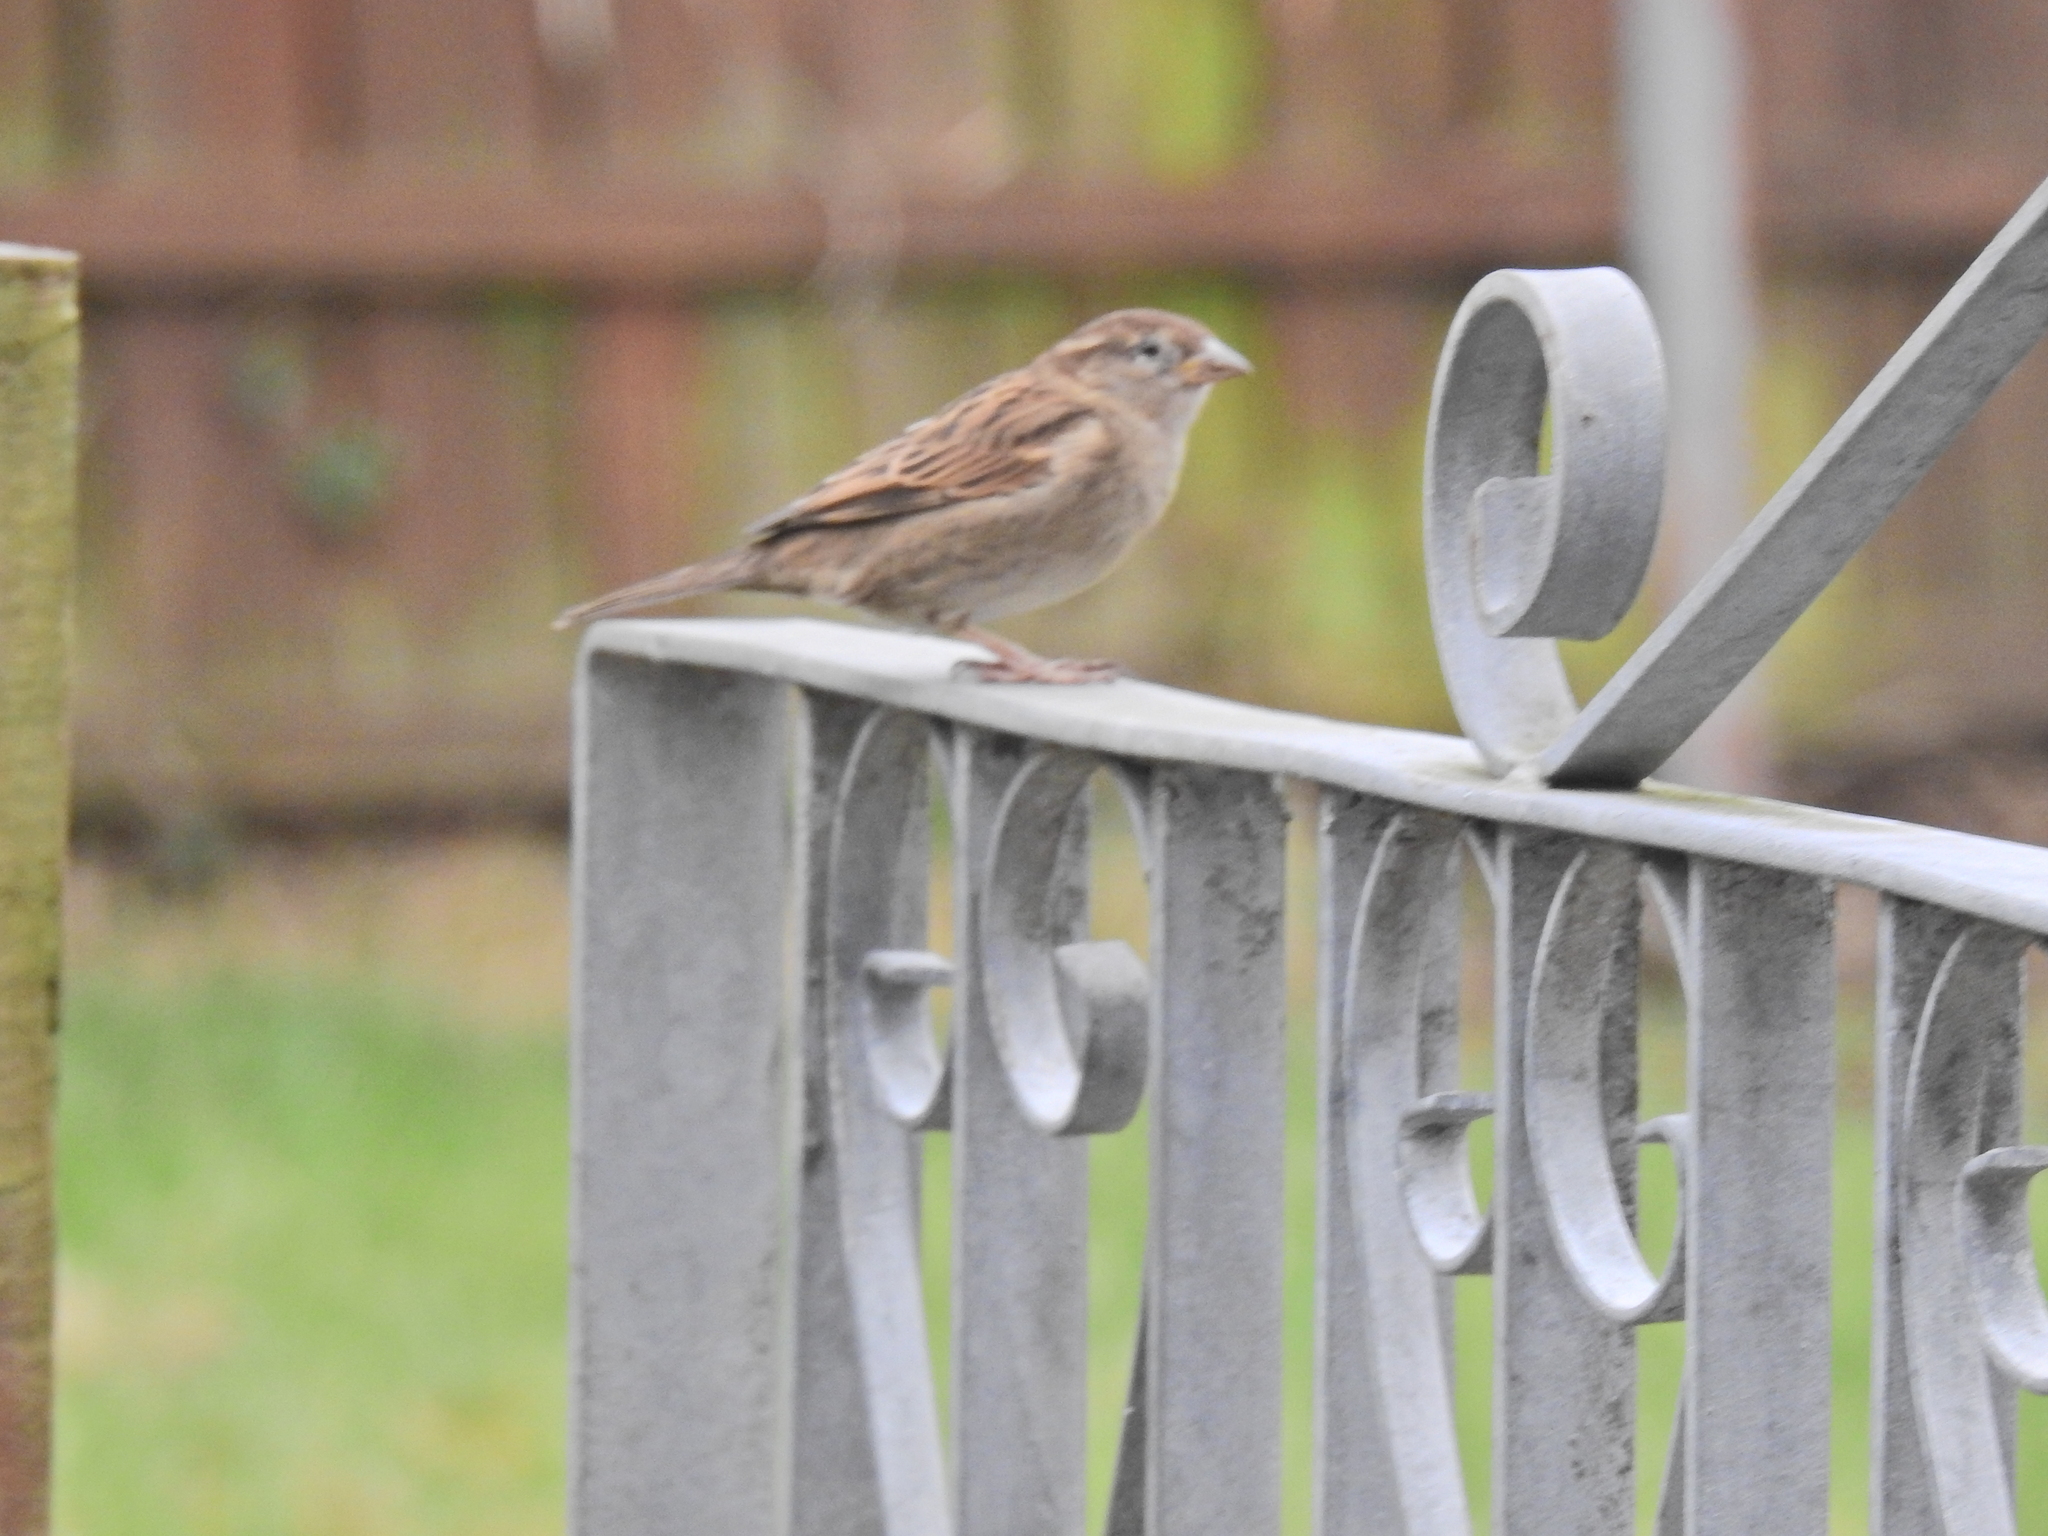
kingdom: Animalia
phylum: Chordata
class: Aves
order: Passeriformes
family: Passeridae
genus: Passer
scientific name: Passer domesticus
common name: House sparrow
